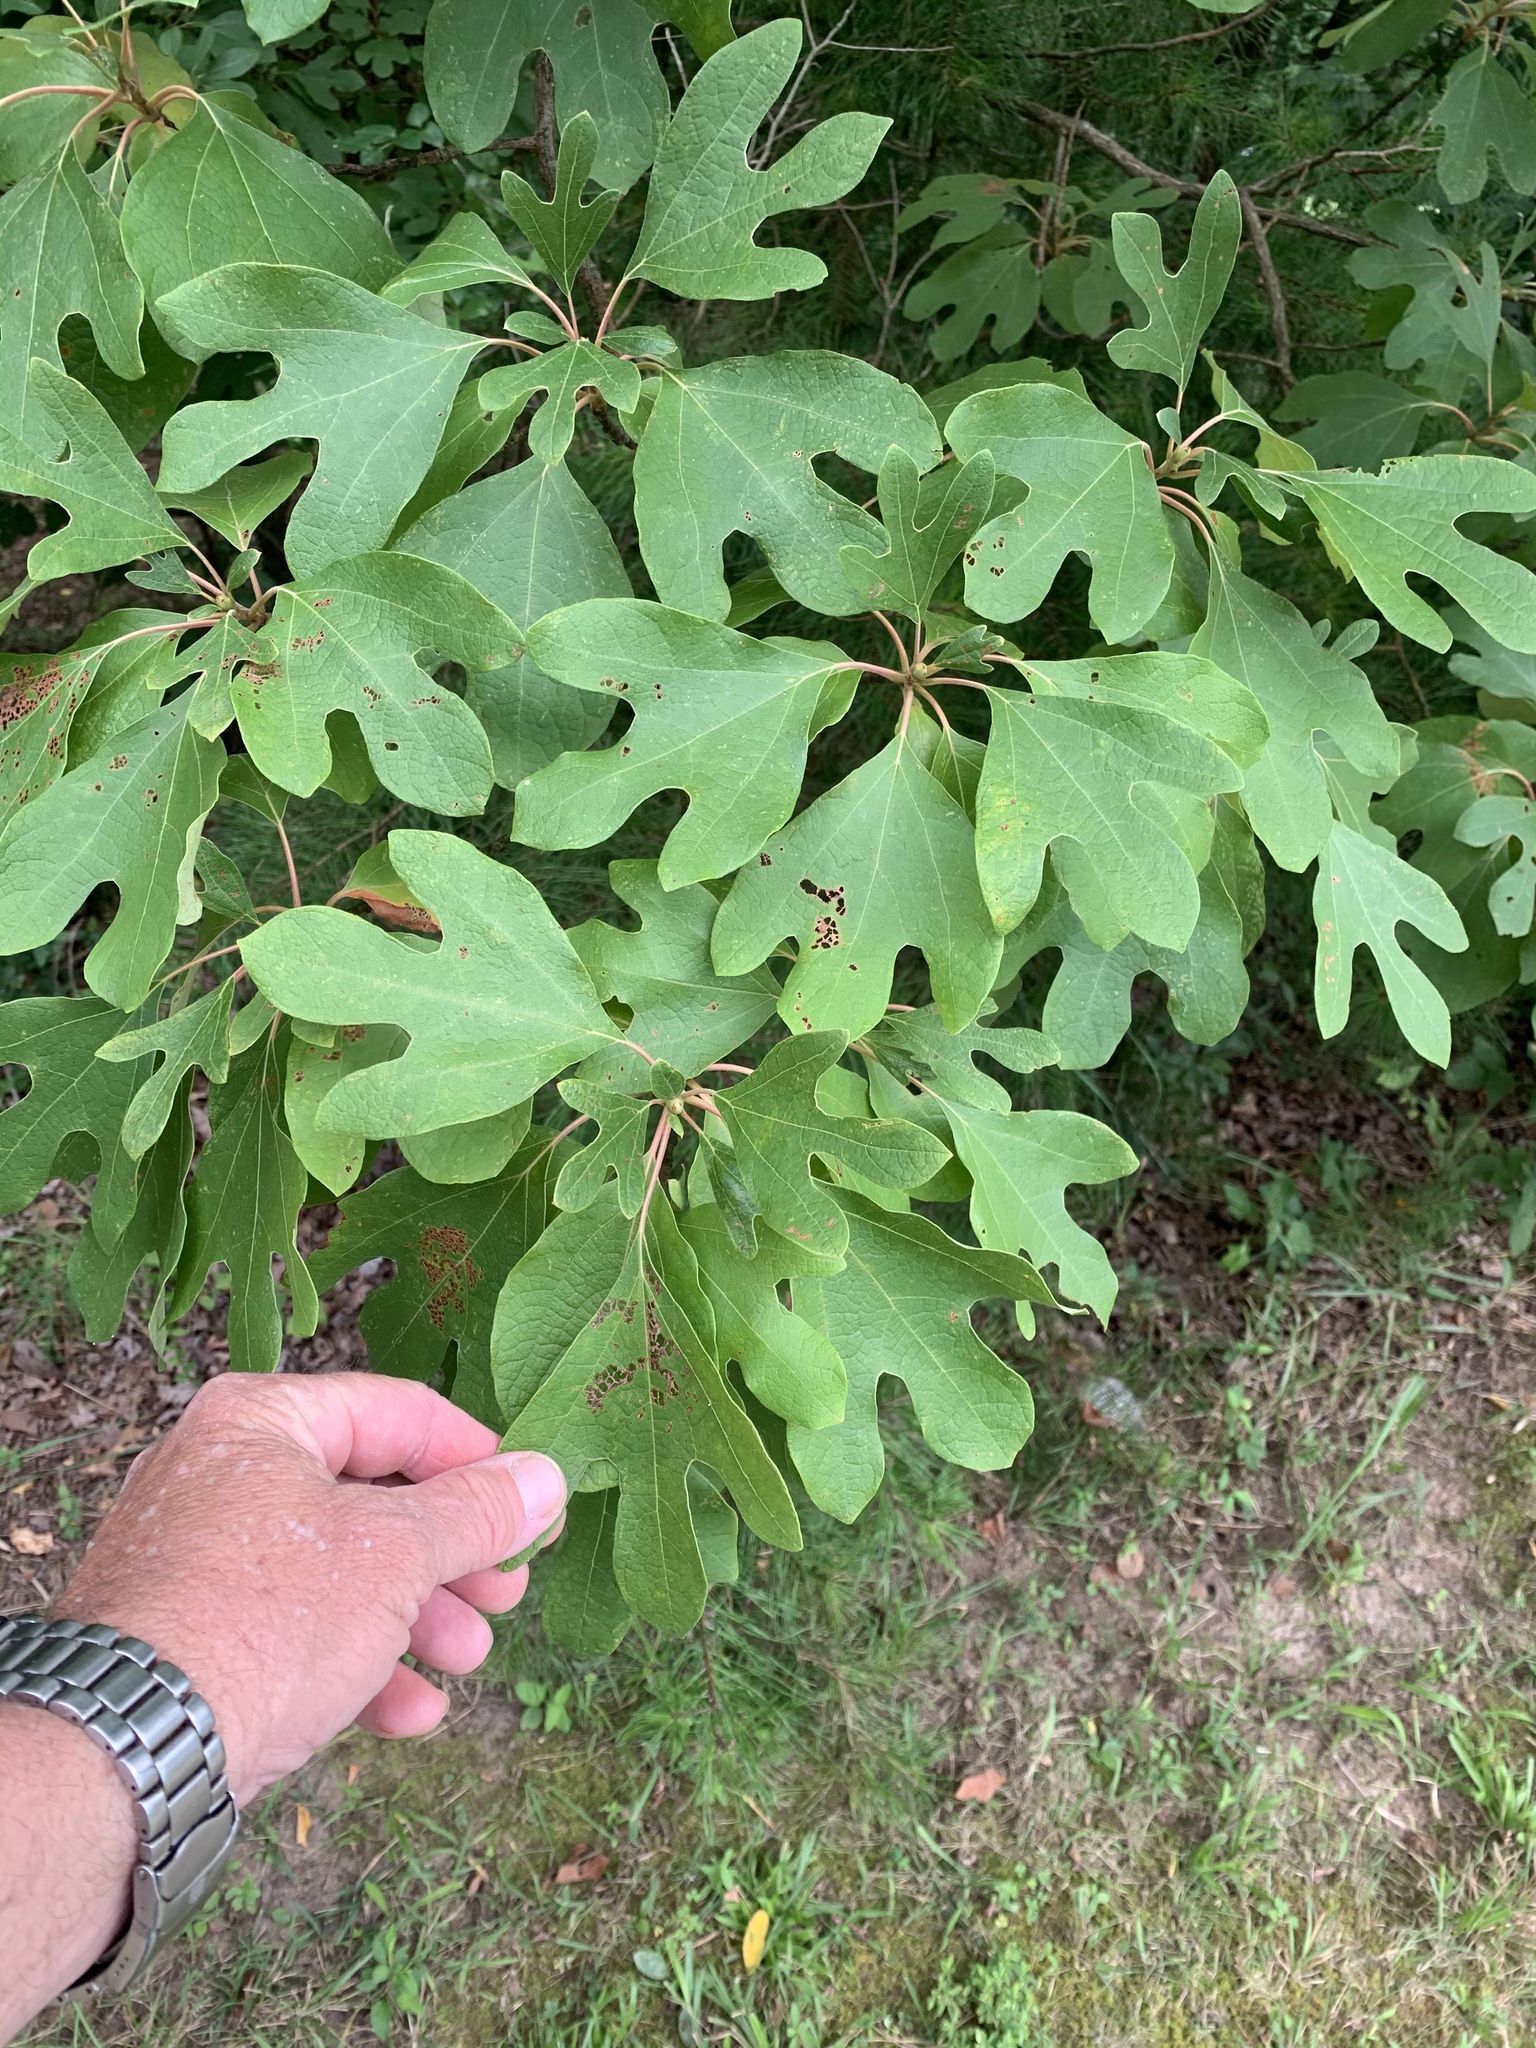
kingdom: Plantae
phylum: Tracheophyta
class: Magnoliopsida
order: Laurales
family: Lauraceae
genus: Sassafras
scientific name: Sassafras albidum
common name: Sassafras
